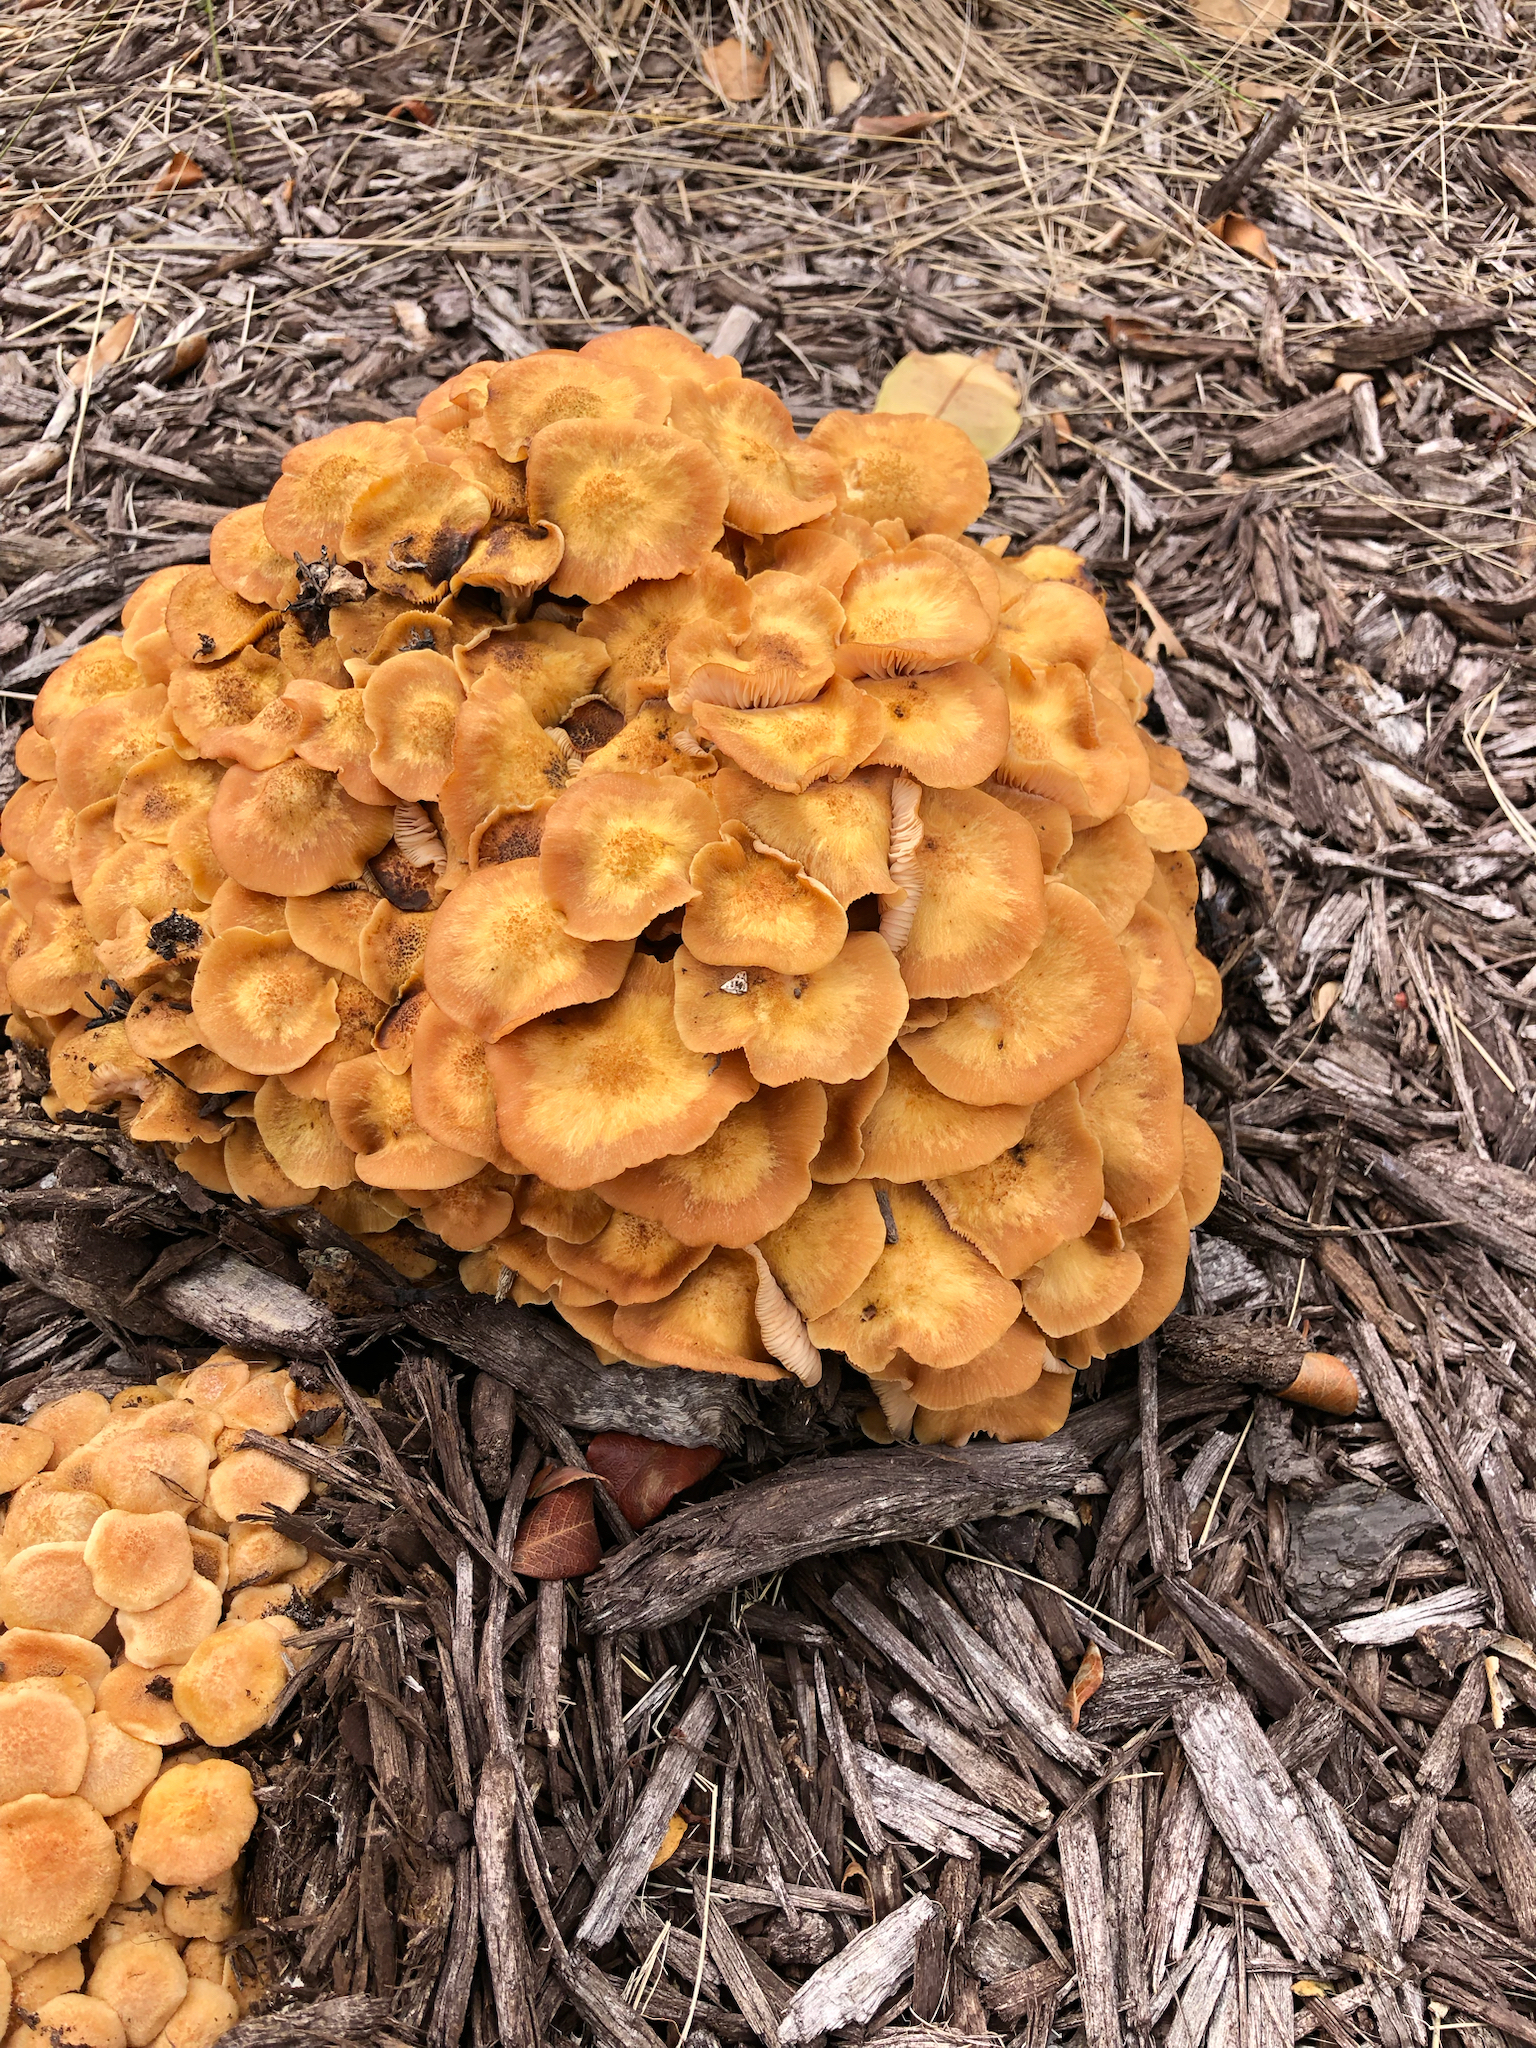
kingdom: Fungi
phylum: Basidiomycota
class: Agaricomycetes
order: Agaricales
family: Physalacriaceae
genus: Desarmillaria
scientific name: Desarmillaria caespitosa
